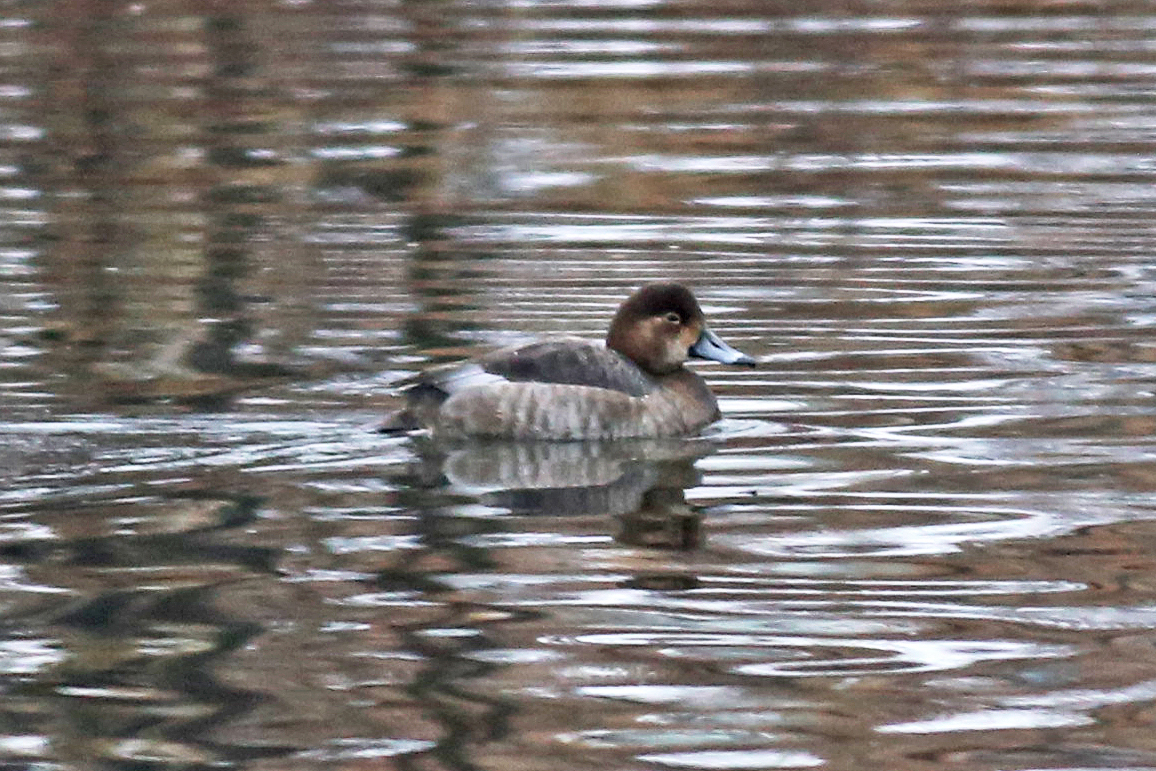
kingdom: Animalia
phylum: Chordata
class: Aves
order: Anseriformes
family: Anatidae
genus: Aythya
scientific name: Aythya collaris
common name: Ring-necked duck
